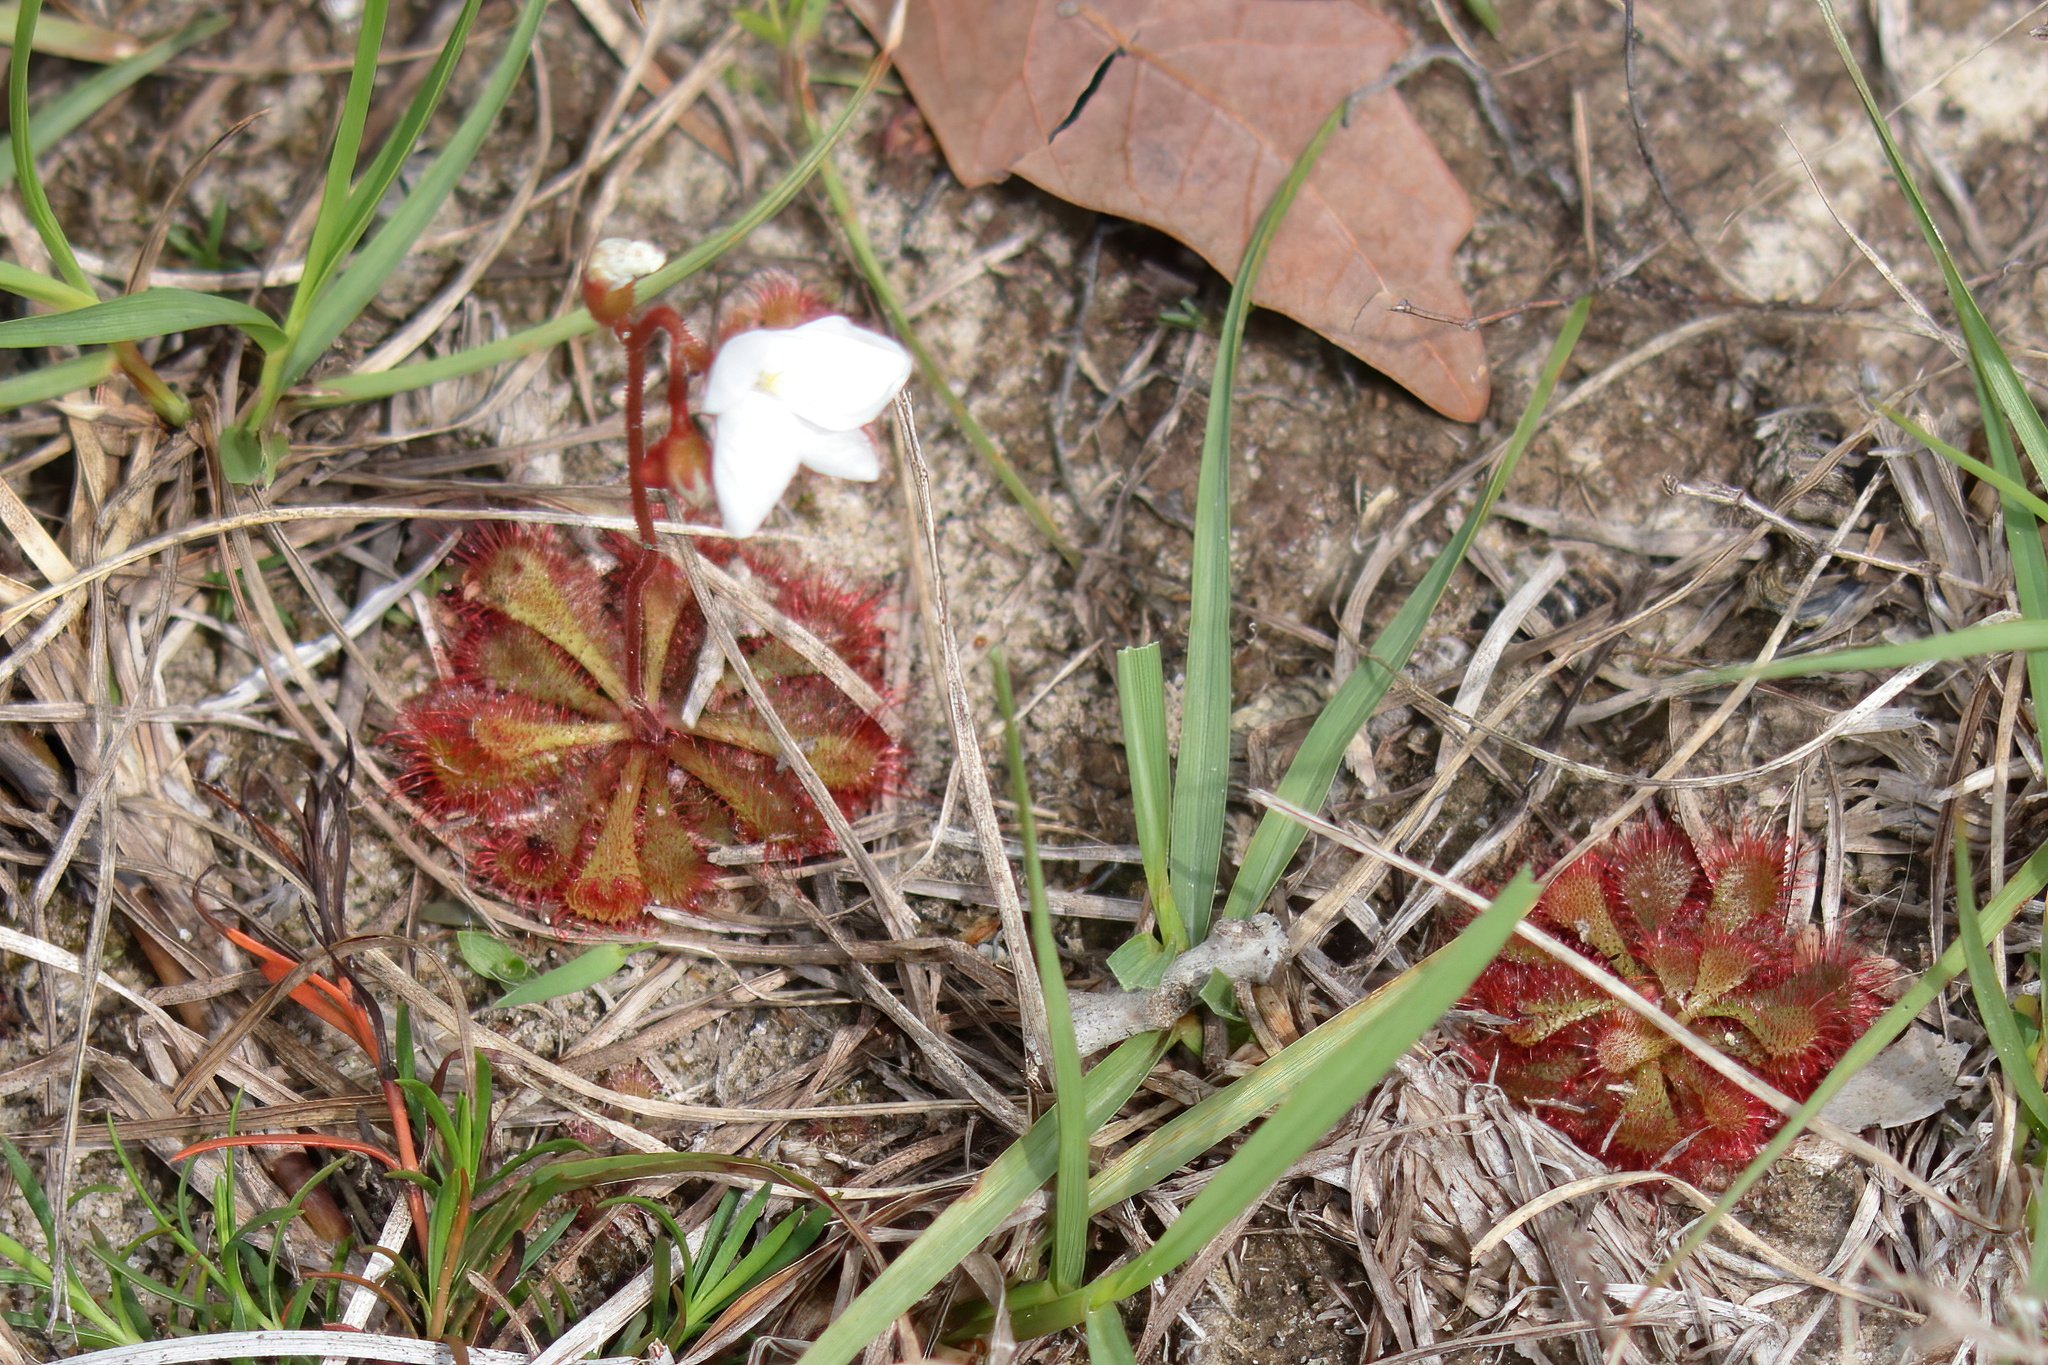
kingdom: Plantae
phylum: Tracheophyta
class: Magnoliopsida
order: Caryophyllales
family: Droseraceae
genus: Drosera
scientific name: Drosera brevifolia
